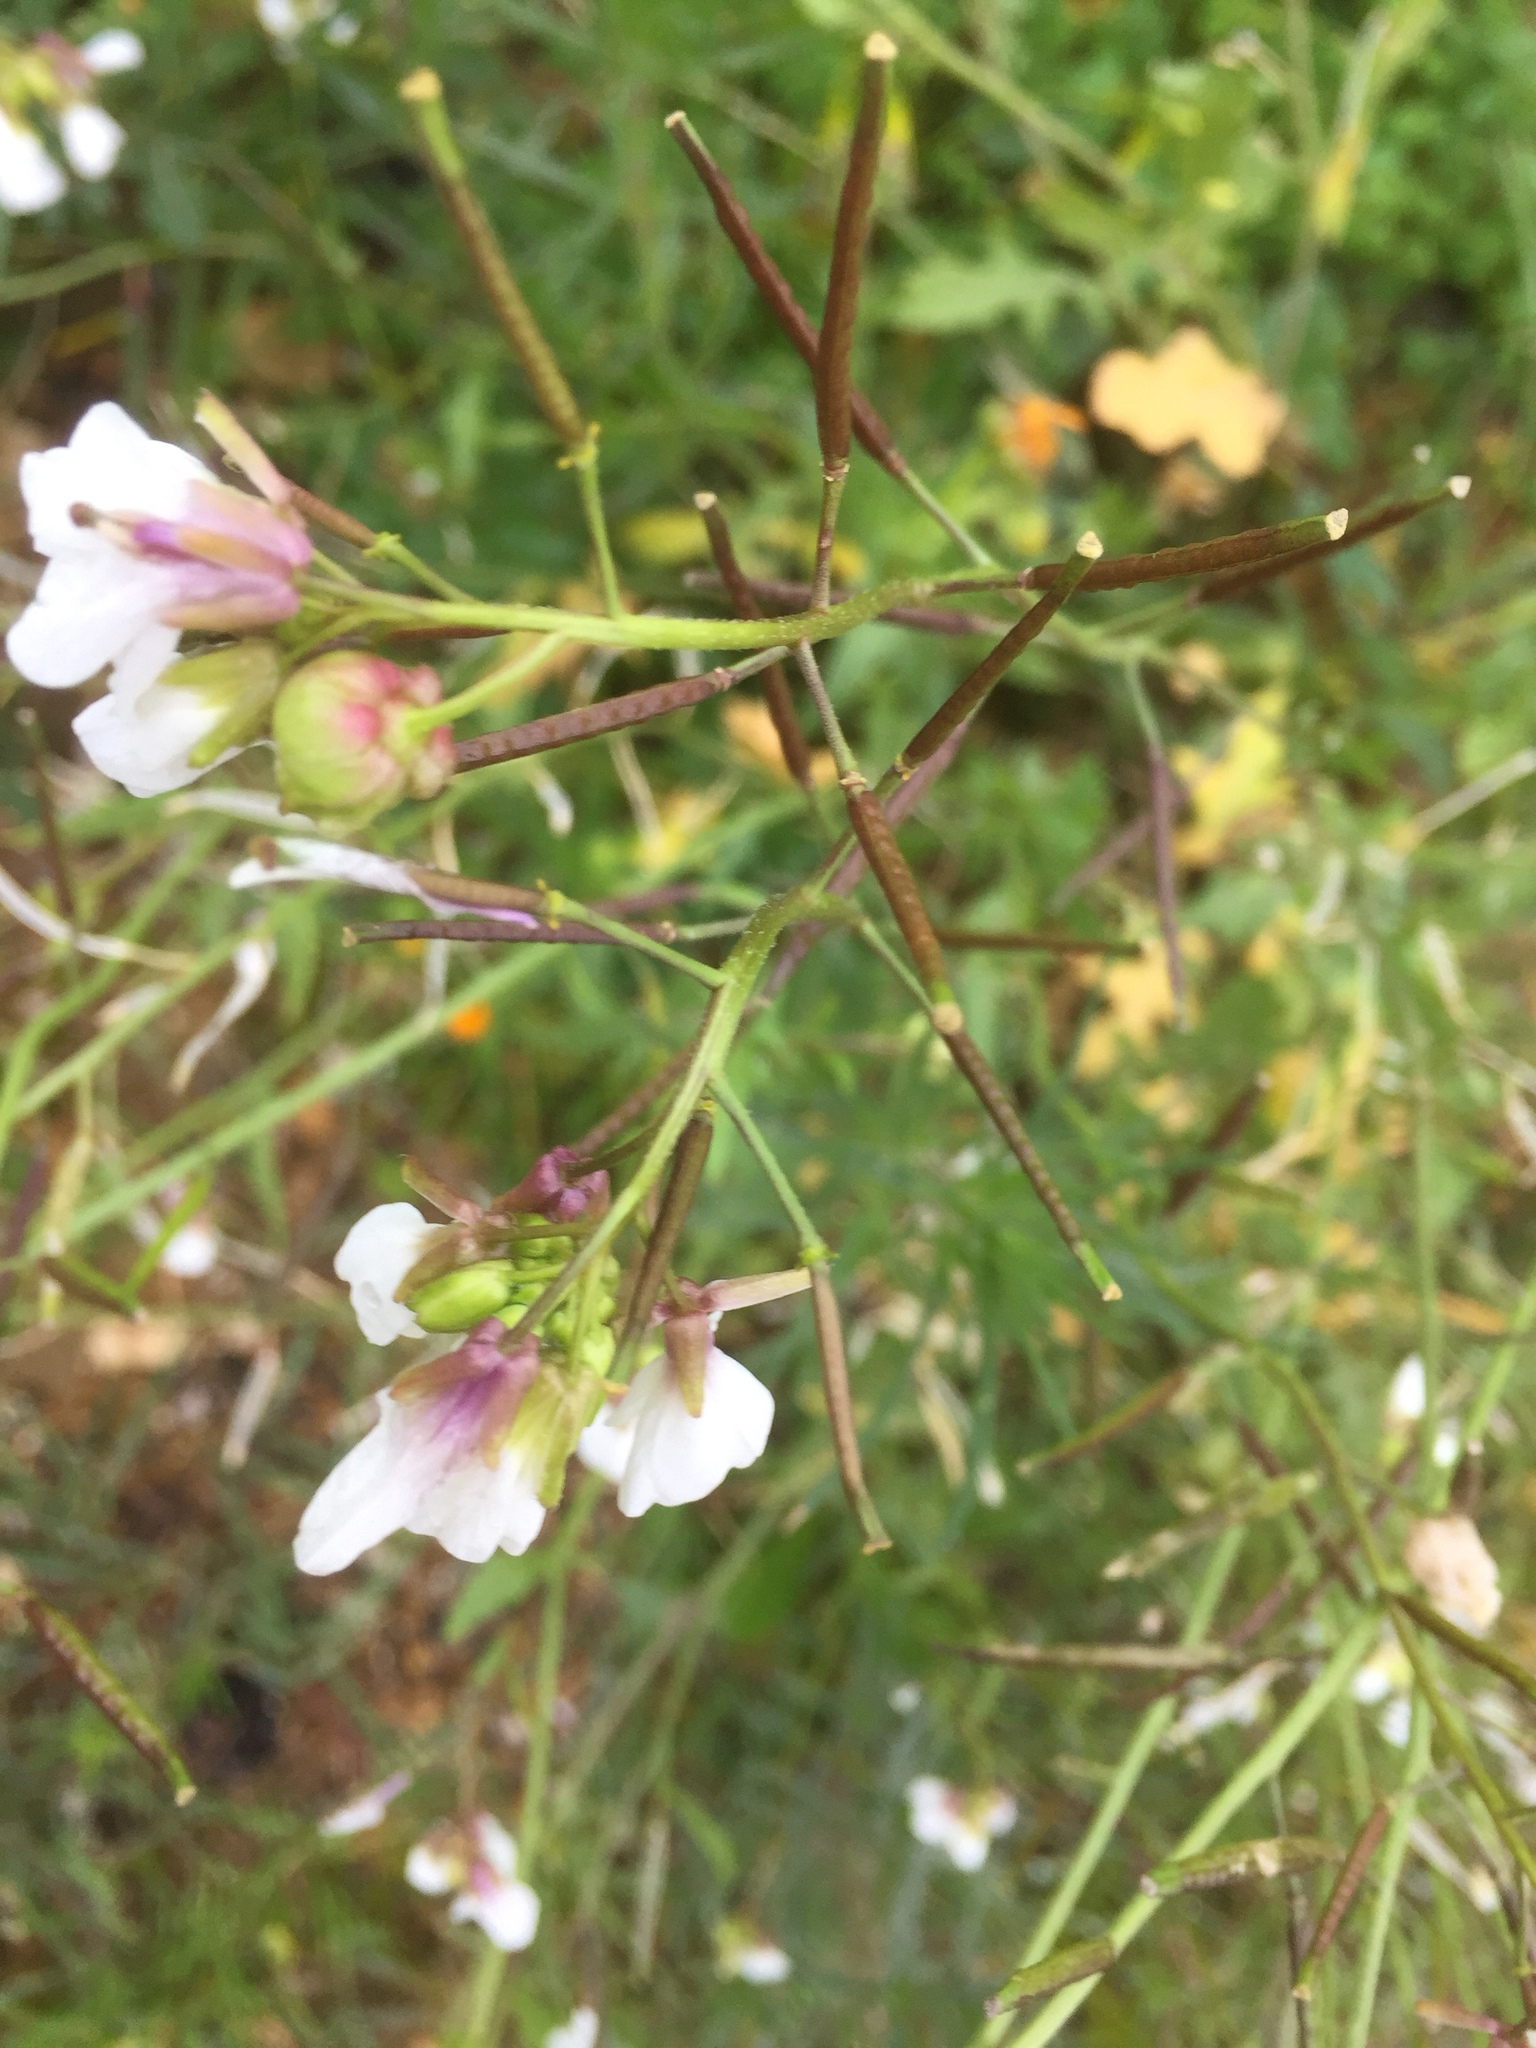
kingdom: Plantae
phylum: Tracheophyta
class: Magnoliopsida
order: Brassicales
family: Brassicaceae
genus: Diplotaxis
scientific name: Diplotaxis erucoides
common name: White rocket
